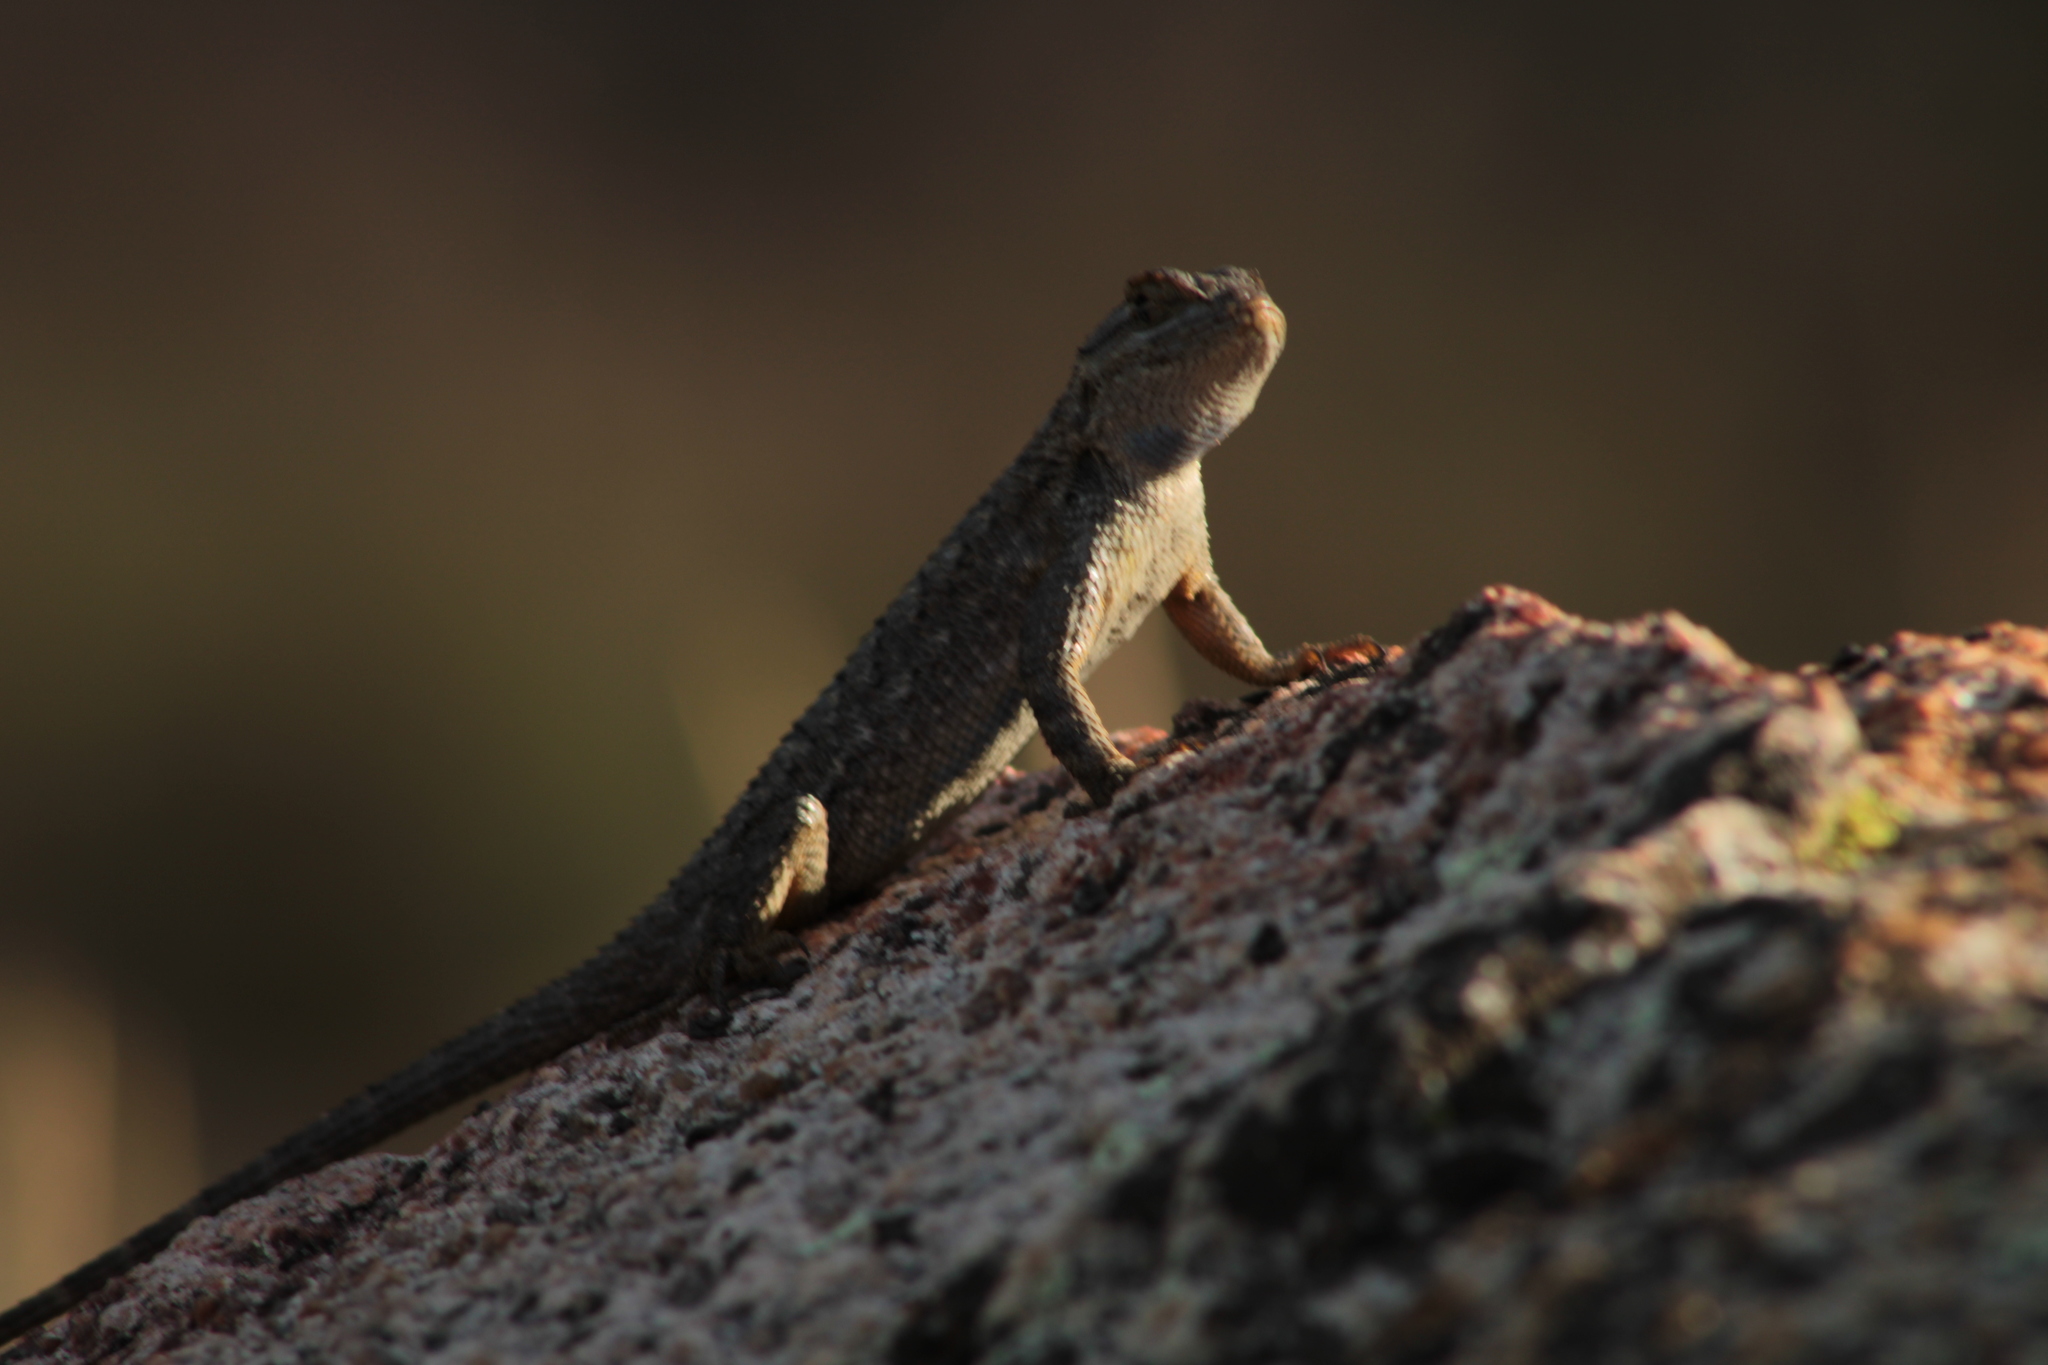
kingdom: Animalia
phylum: Chordata
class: Squamata
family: Phrynosomatidae
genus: Sceloporus
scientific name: Sceloporus occidentalis
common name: Western fence lizard
